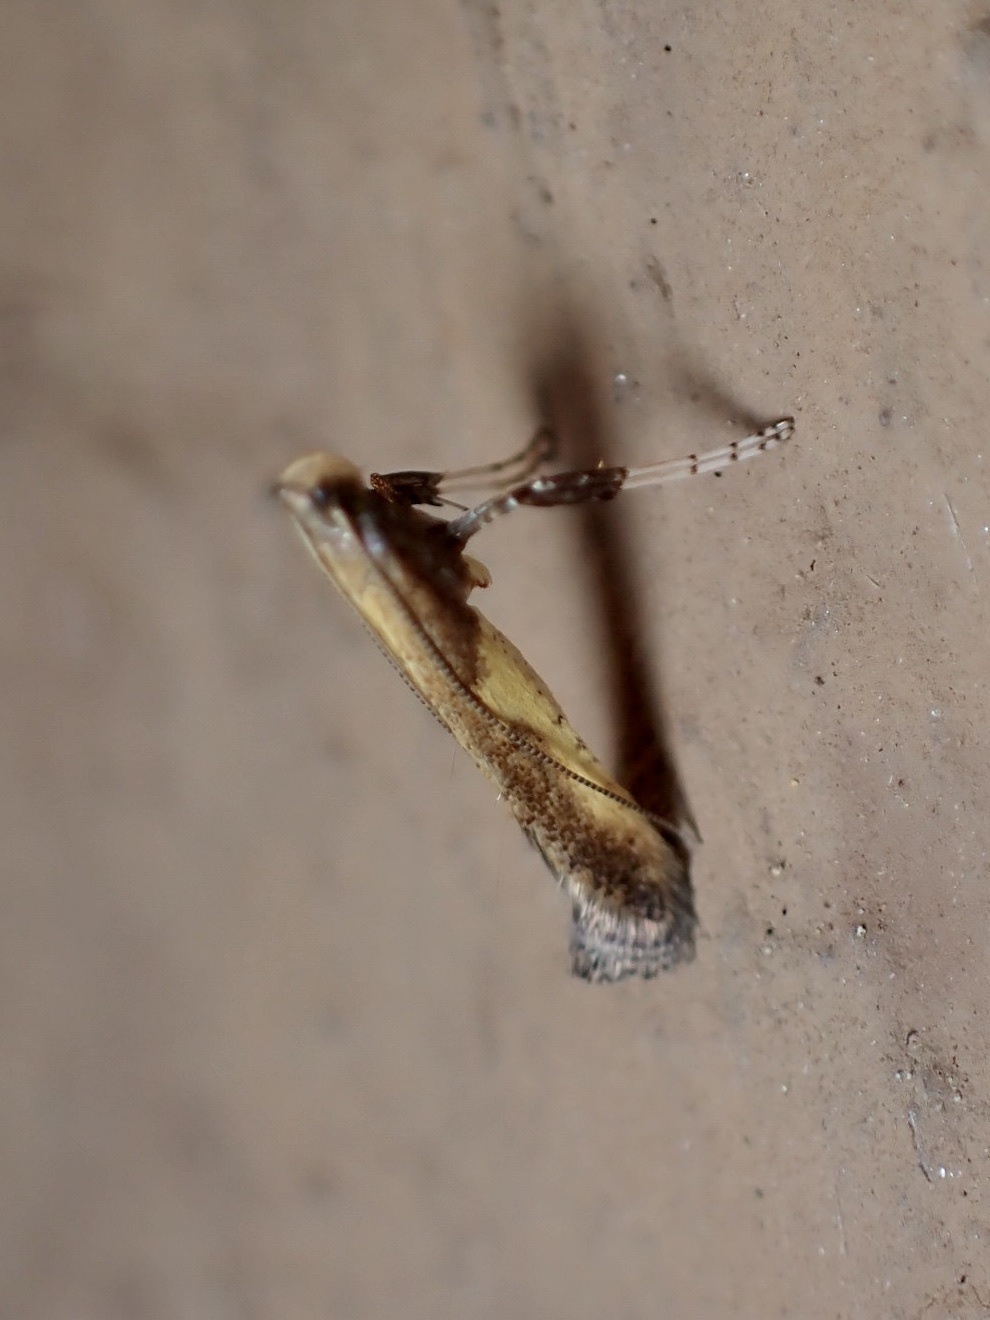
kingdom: Animalia
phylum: Arthropoda
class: Insecta
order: Lepidoptera
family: Gracillariidae
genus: Caloptilia
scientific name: Caloptilia azaleella
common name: Azalea leafminer
